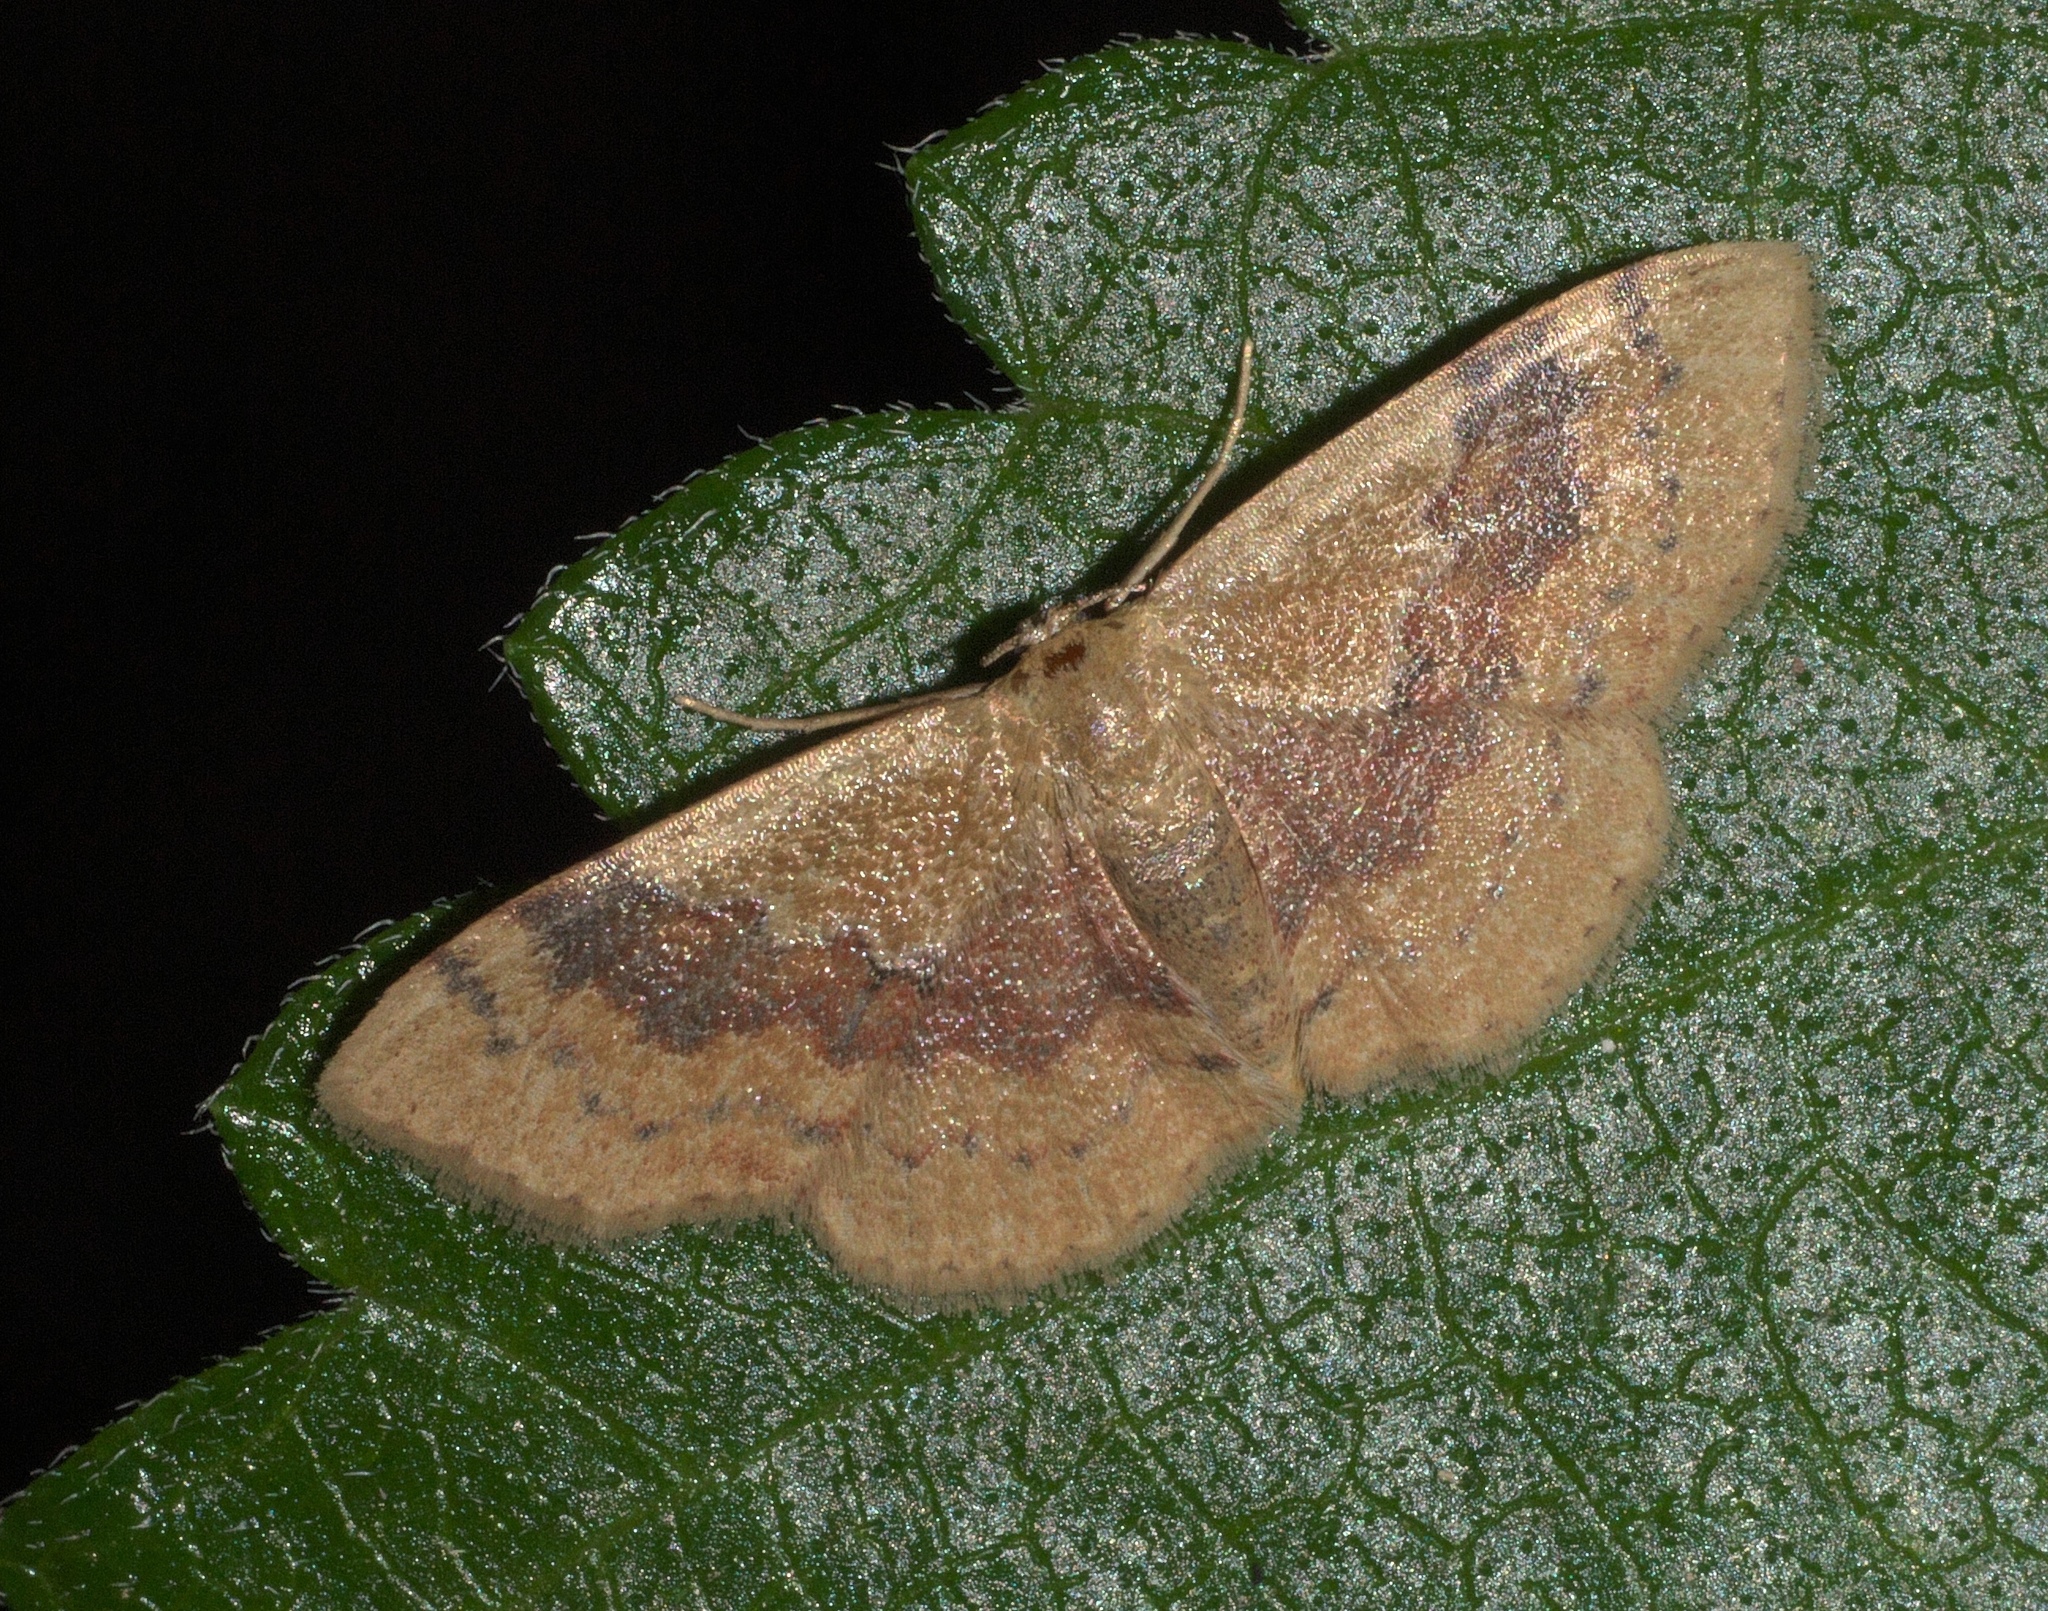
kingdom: Animalia
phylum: Arthropoda
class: Insecta
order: Lepidoptera
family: Geometridae
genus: Leptostales
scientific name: Leptostales ferruminaria
